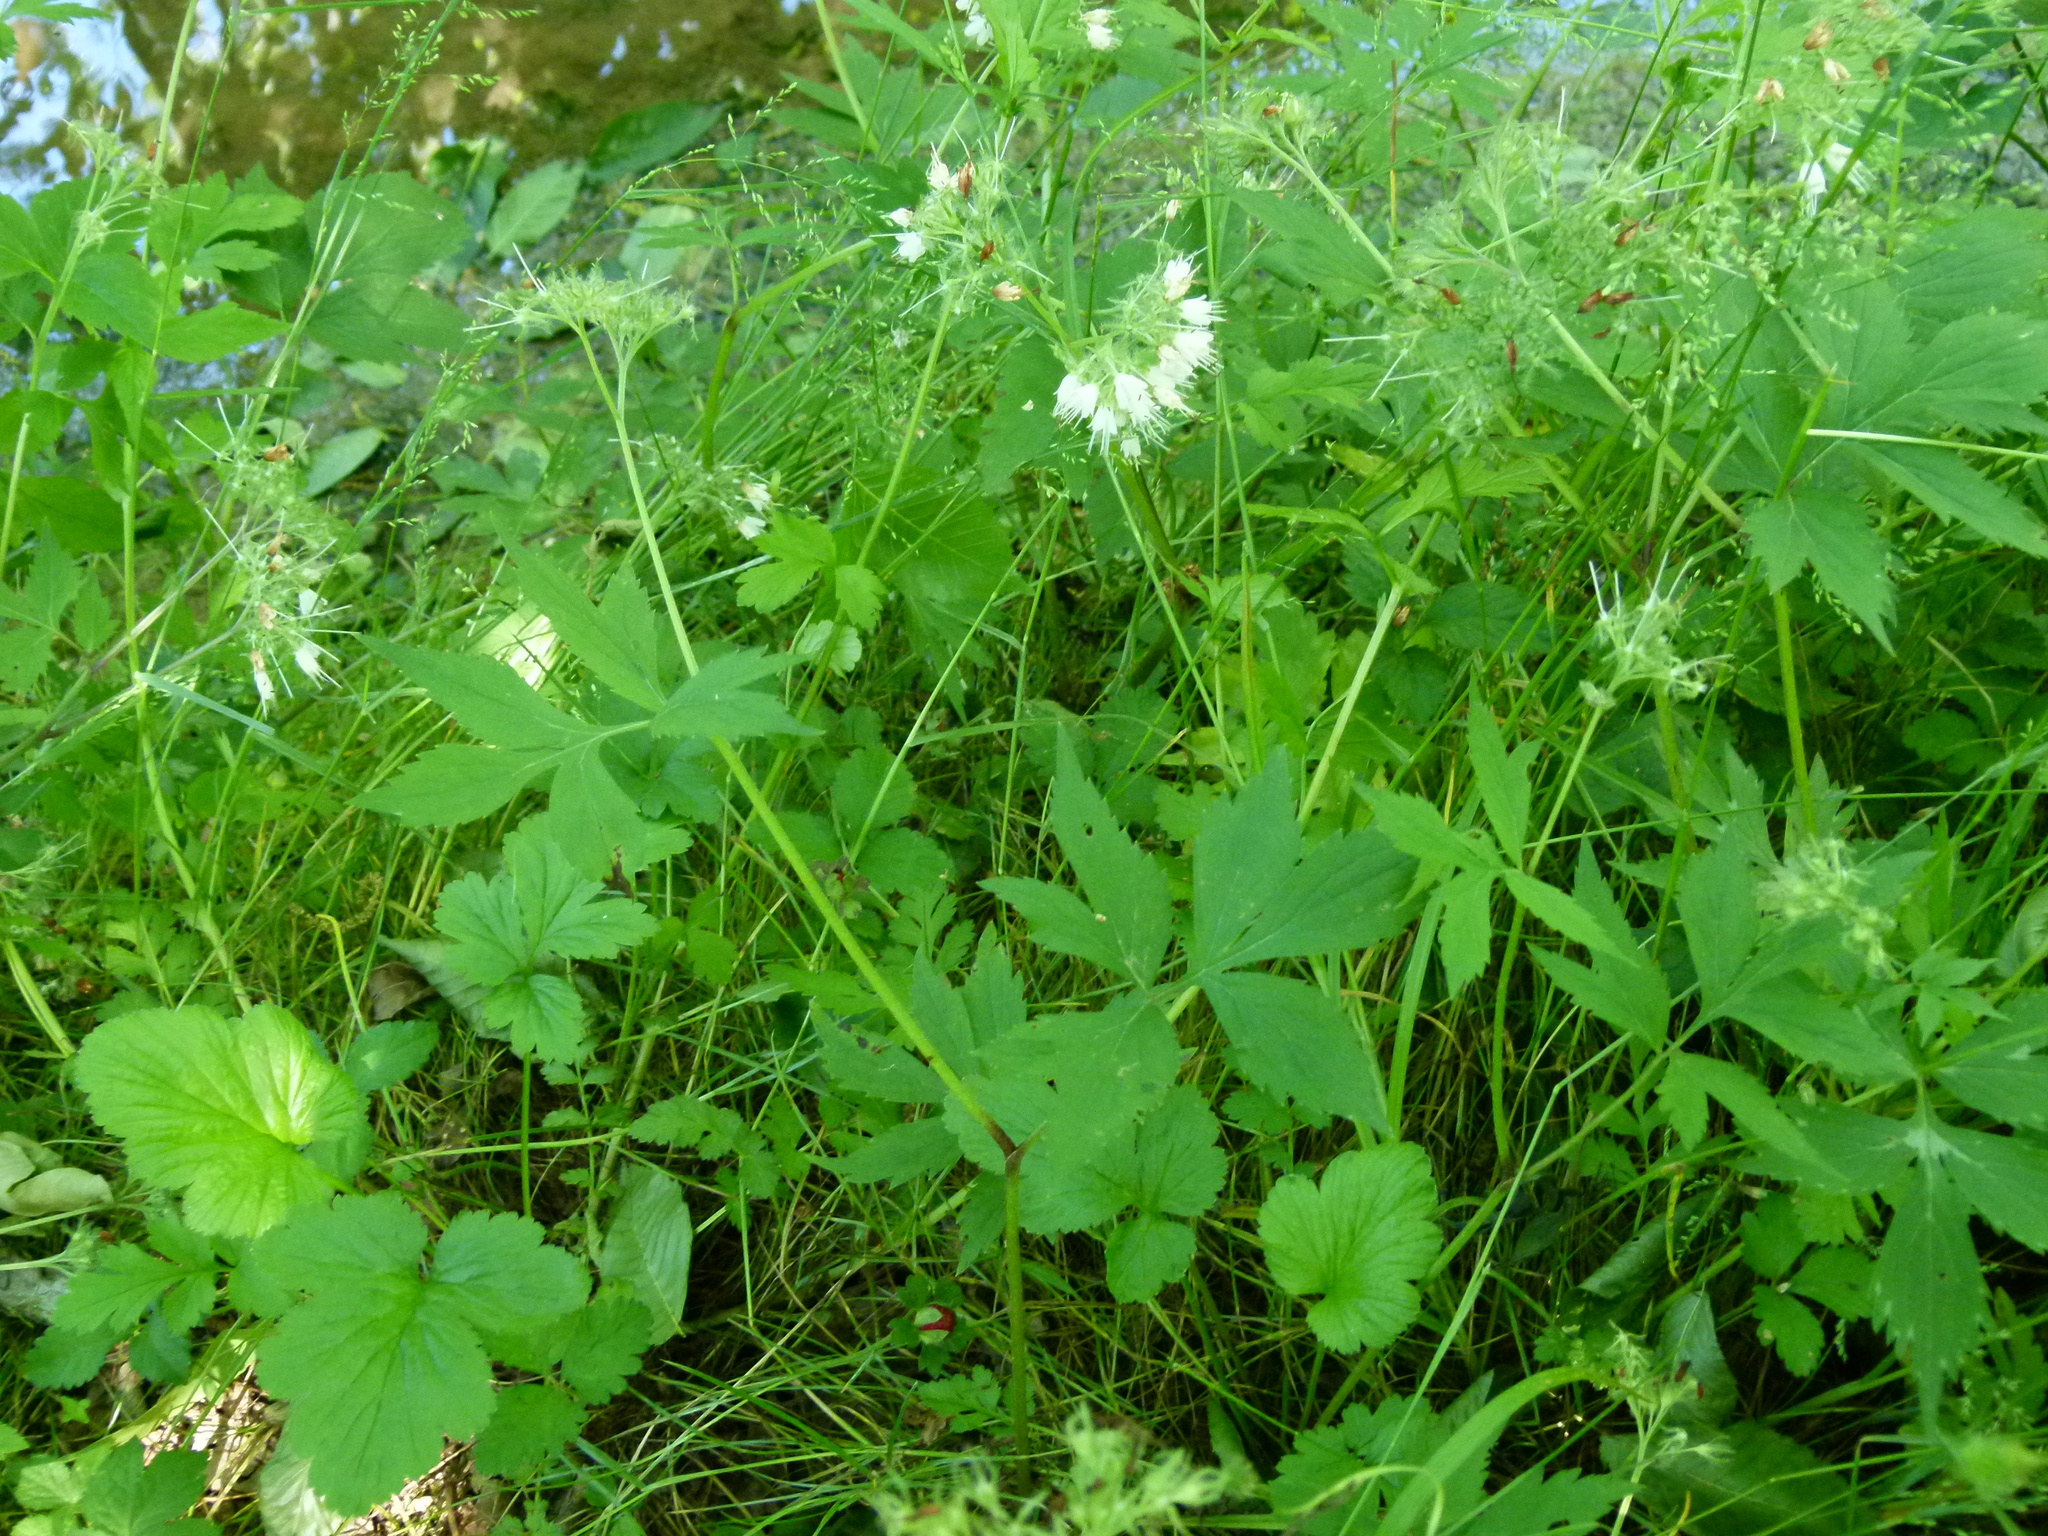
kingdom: Plantae
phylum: Tracheophyta
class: Magnoliopsida
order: Boraginales
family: Hydrophyllaceae
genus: Hydrophyllum
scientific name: Hydrophyllum virginianum
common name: Virginia waterleaf
